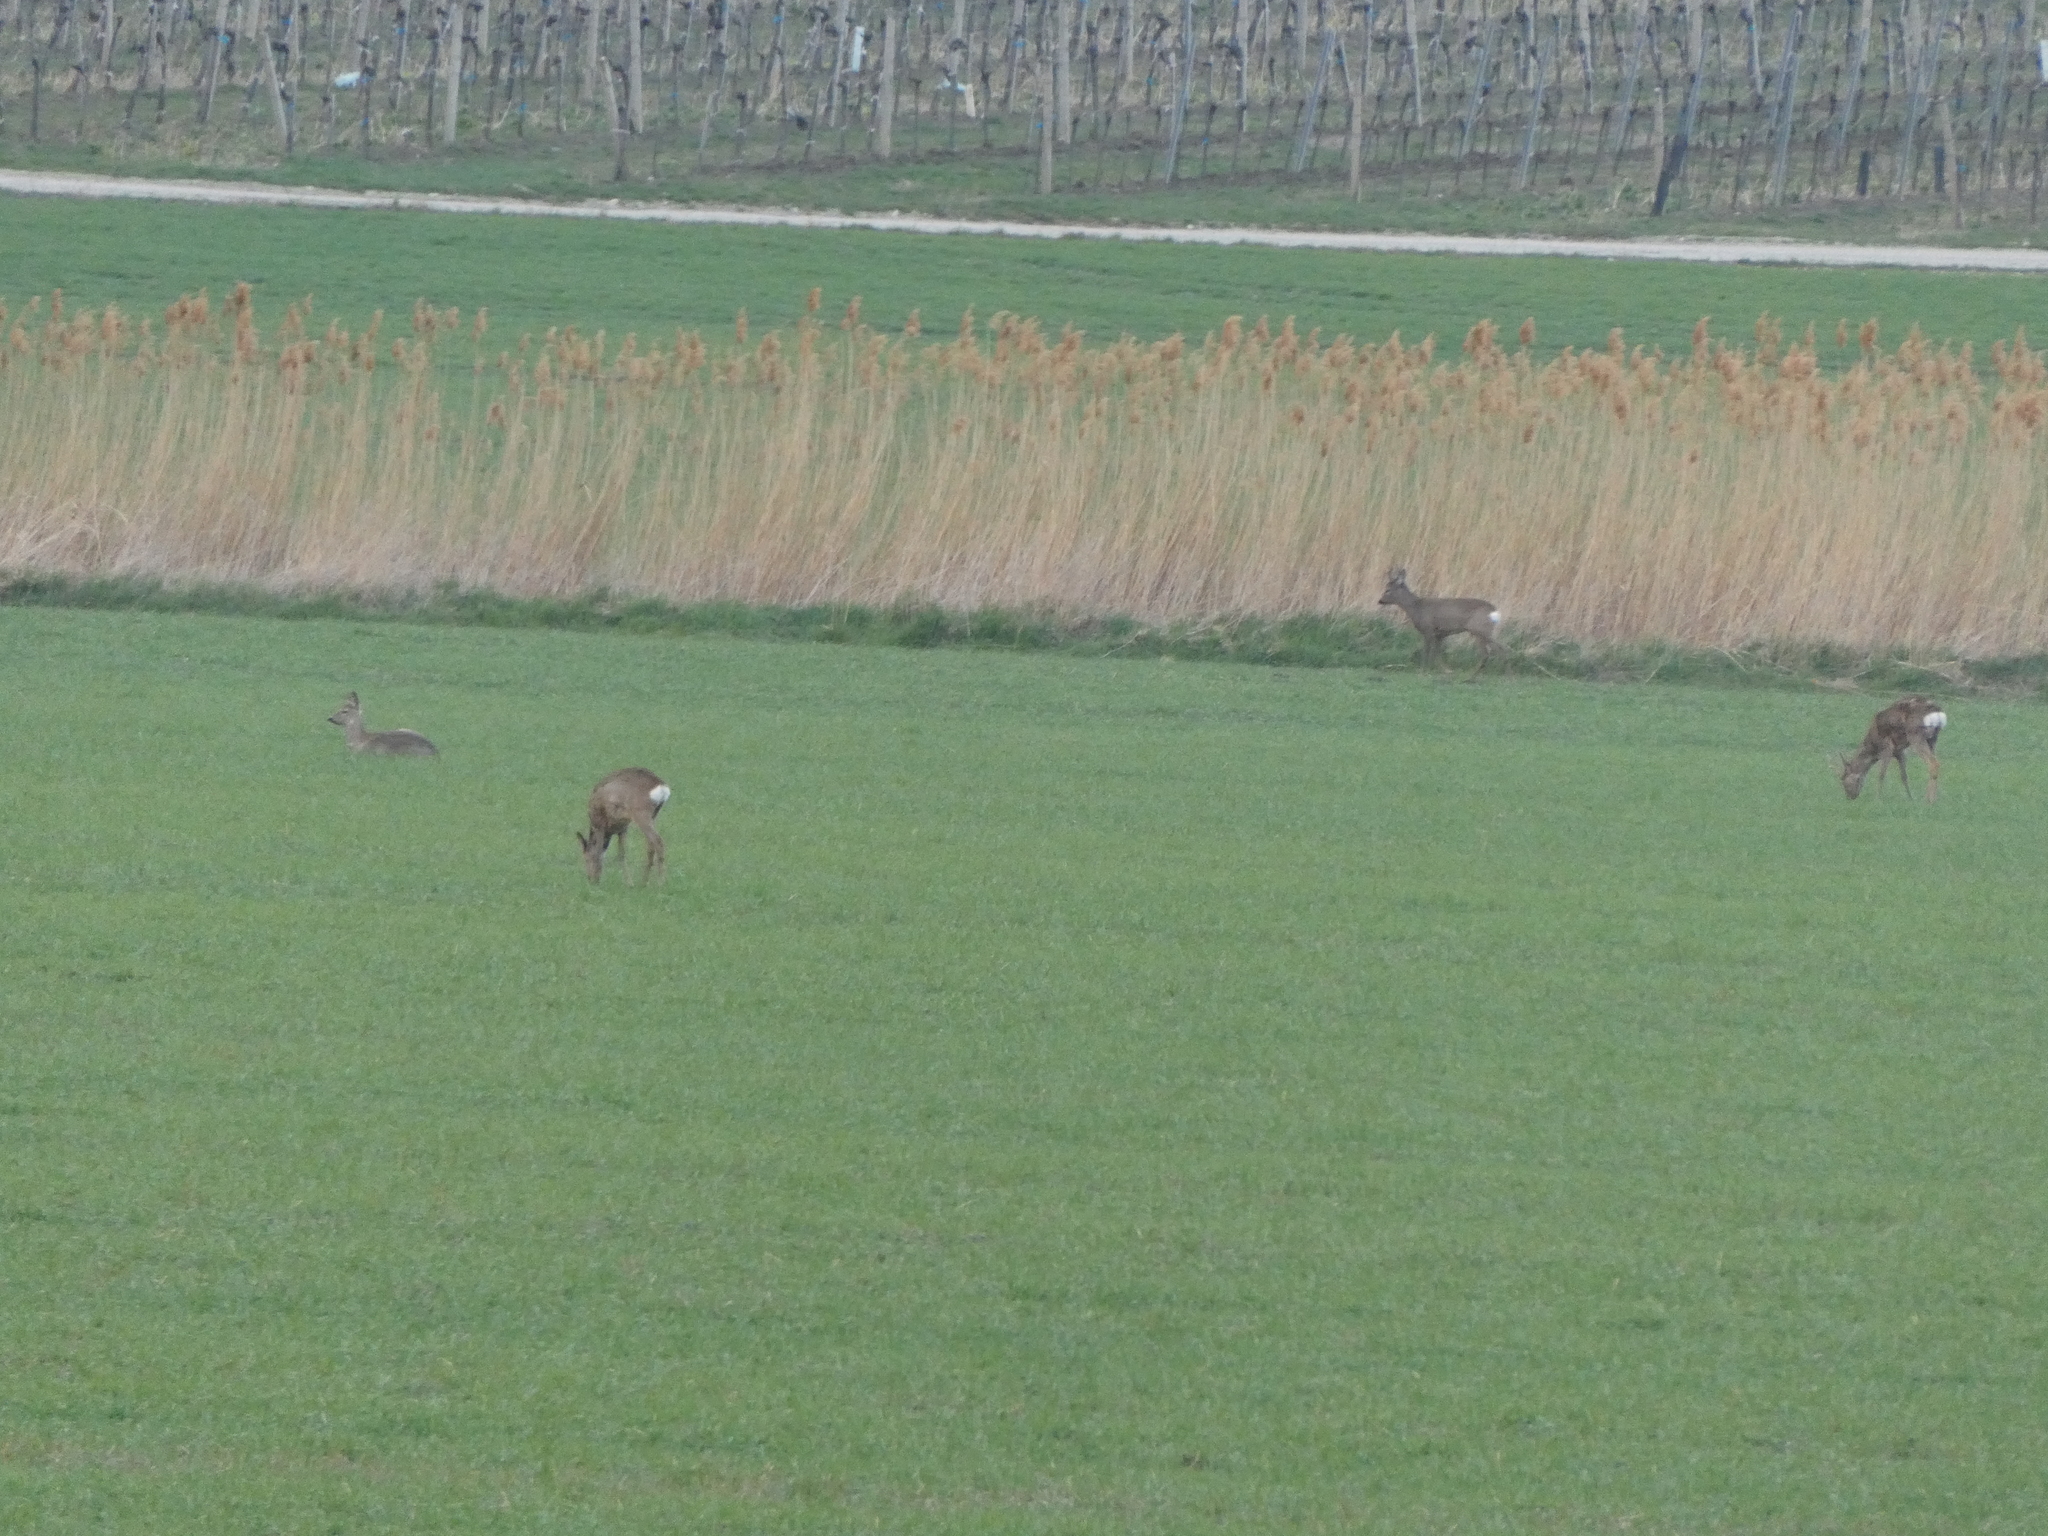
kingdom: Animalia
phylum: Chordata
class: Mammalia
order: Artiodactyla
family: Cervidae
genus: Capreolus
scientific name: Capreolus capreolus
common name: Western roe deer
